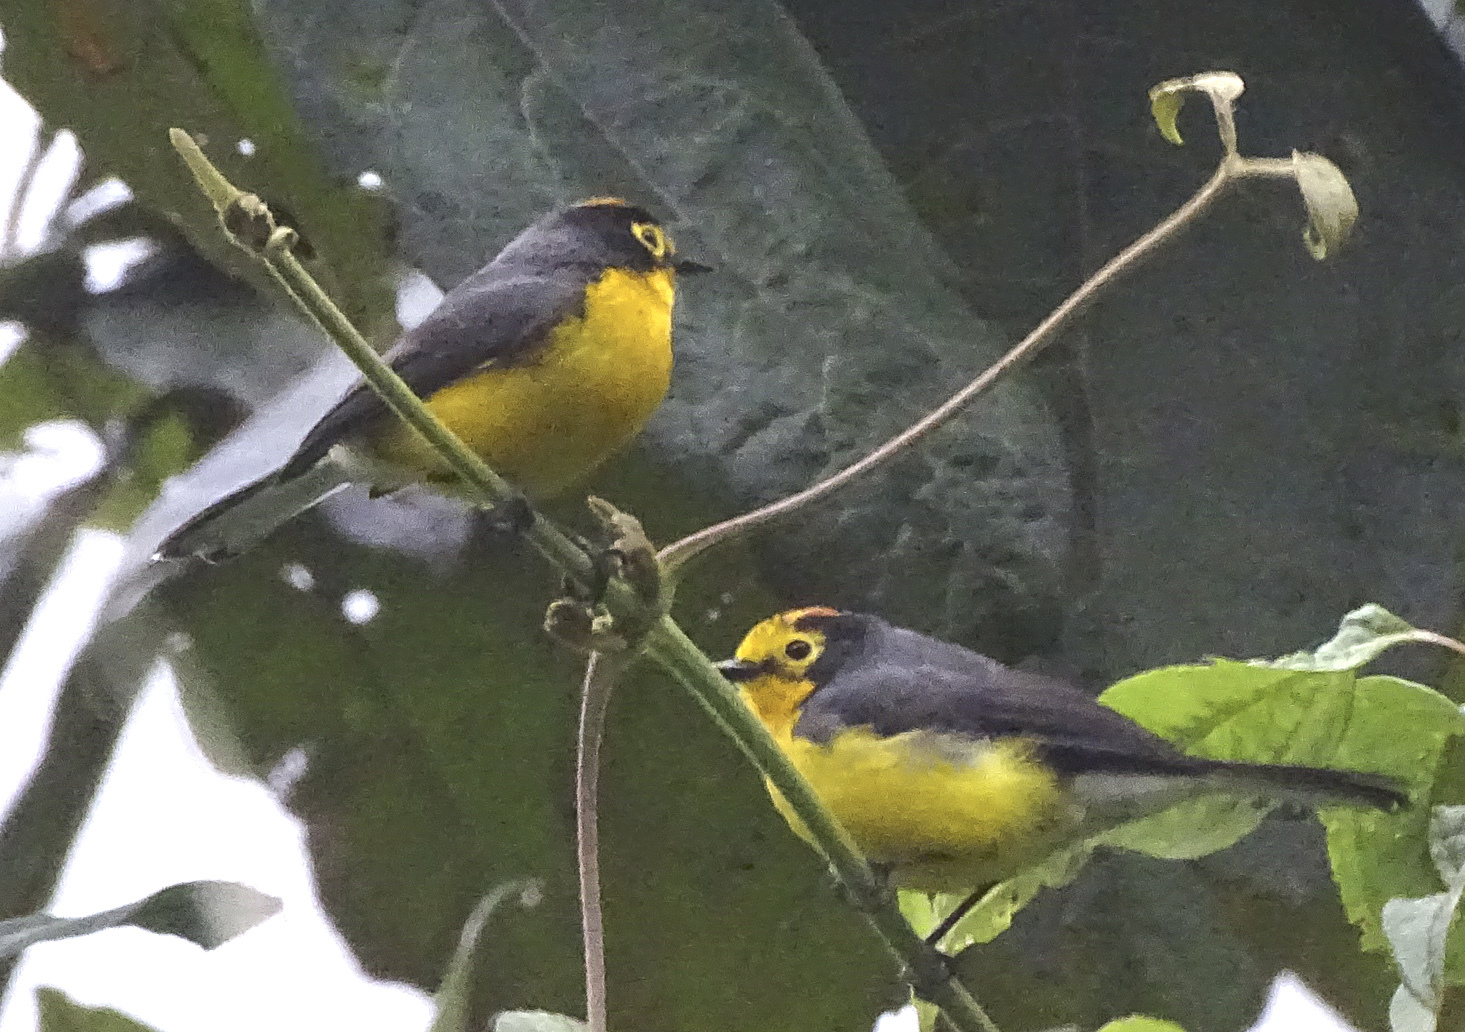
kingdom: Animalia
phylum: Chordata
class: Aves
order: Passeriformes
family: Parulidae
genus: Myioborus
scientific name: Myioborus melanocephalus
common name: Spectacled whitestart
